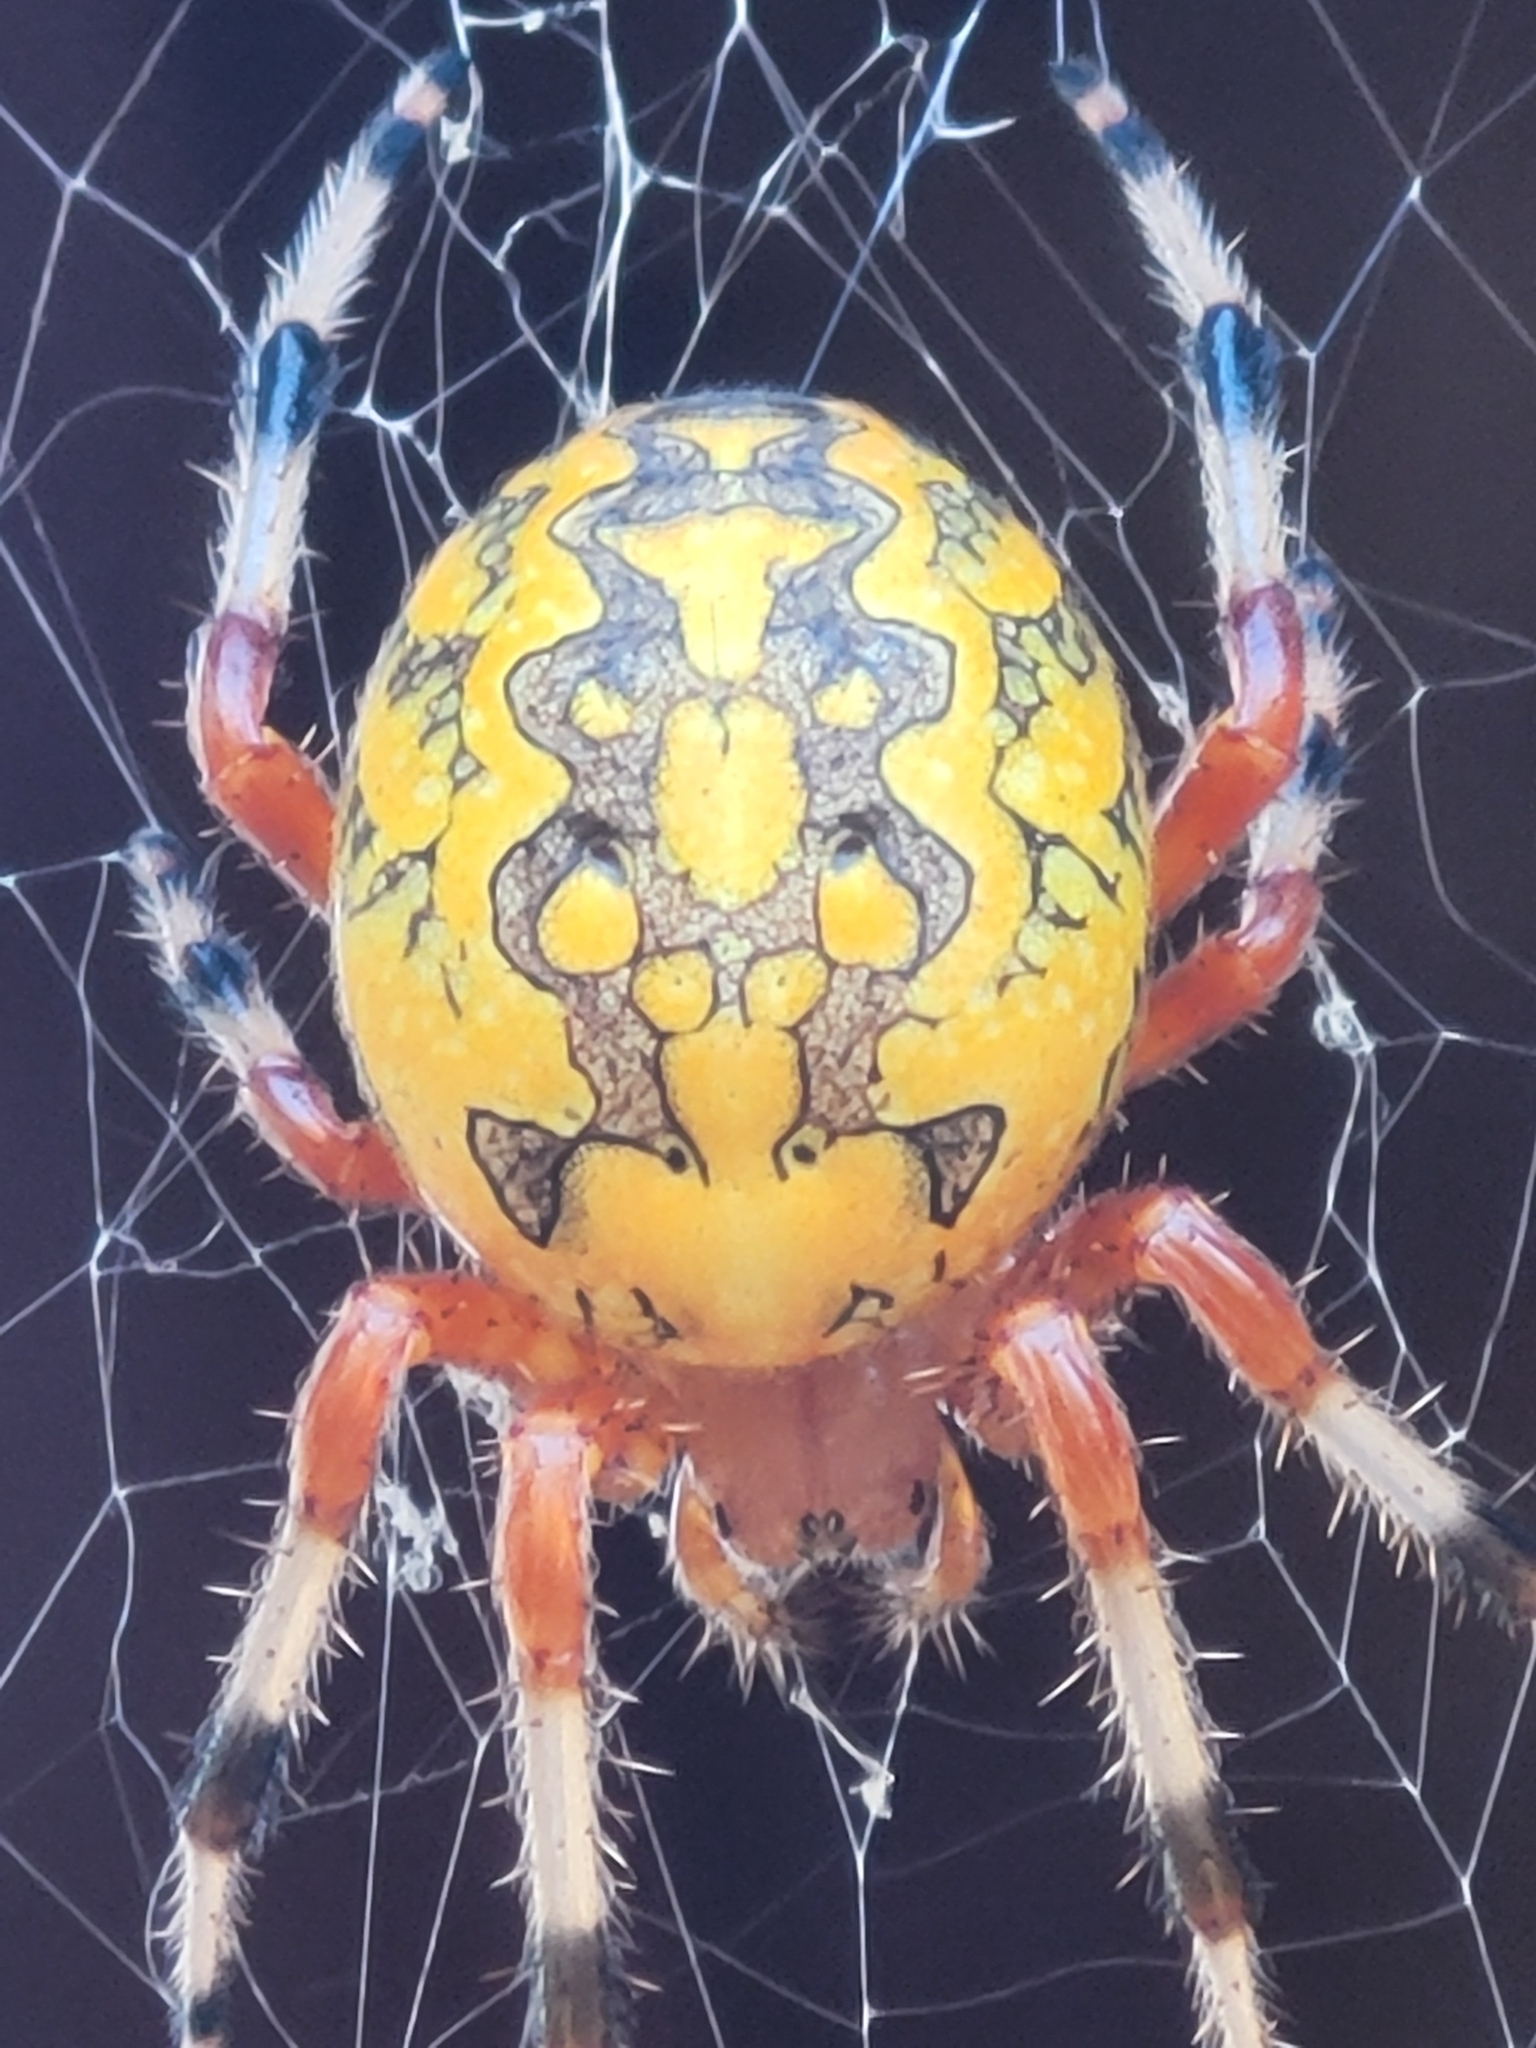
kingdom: Animalia
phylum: Arthropoda
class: Arachnida
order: Araneae
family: Araneidae
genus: Araneus
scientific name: Araneus marmoreus
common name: Marbled orbweaver
